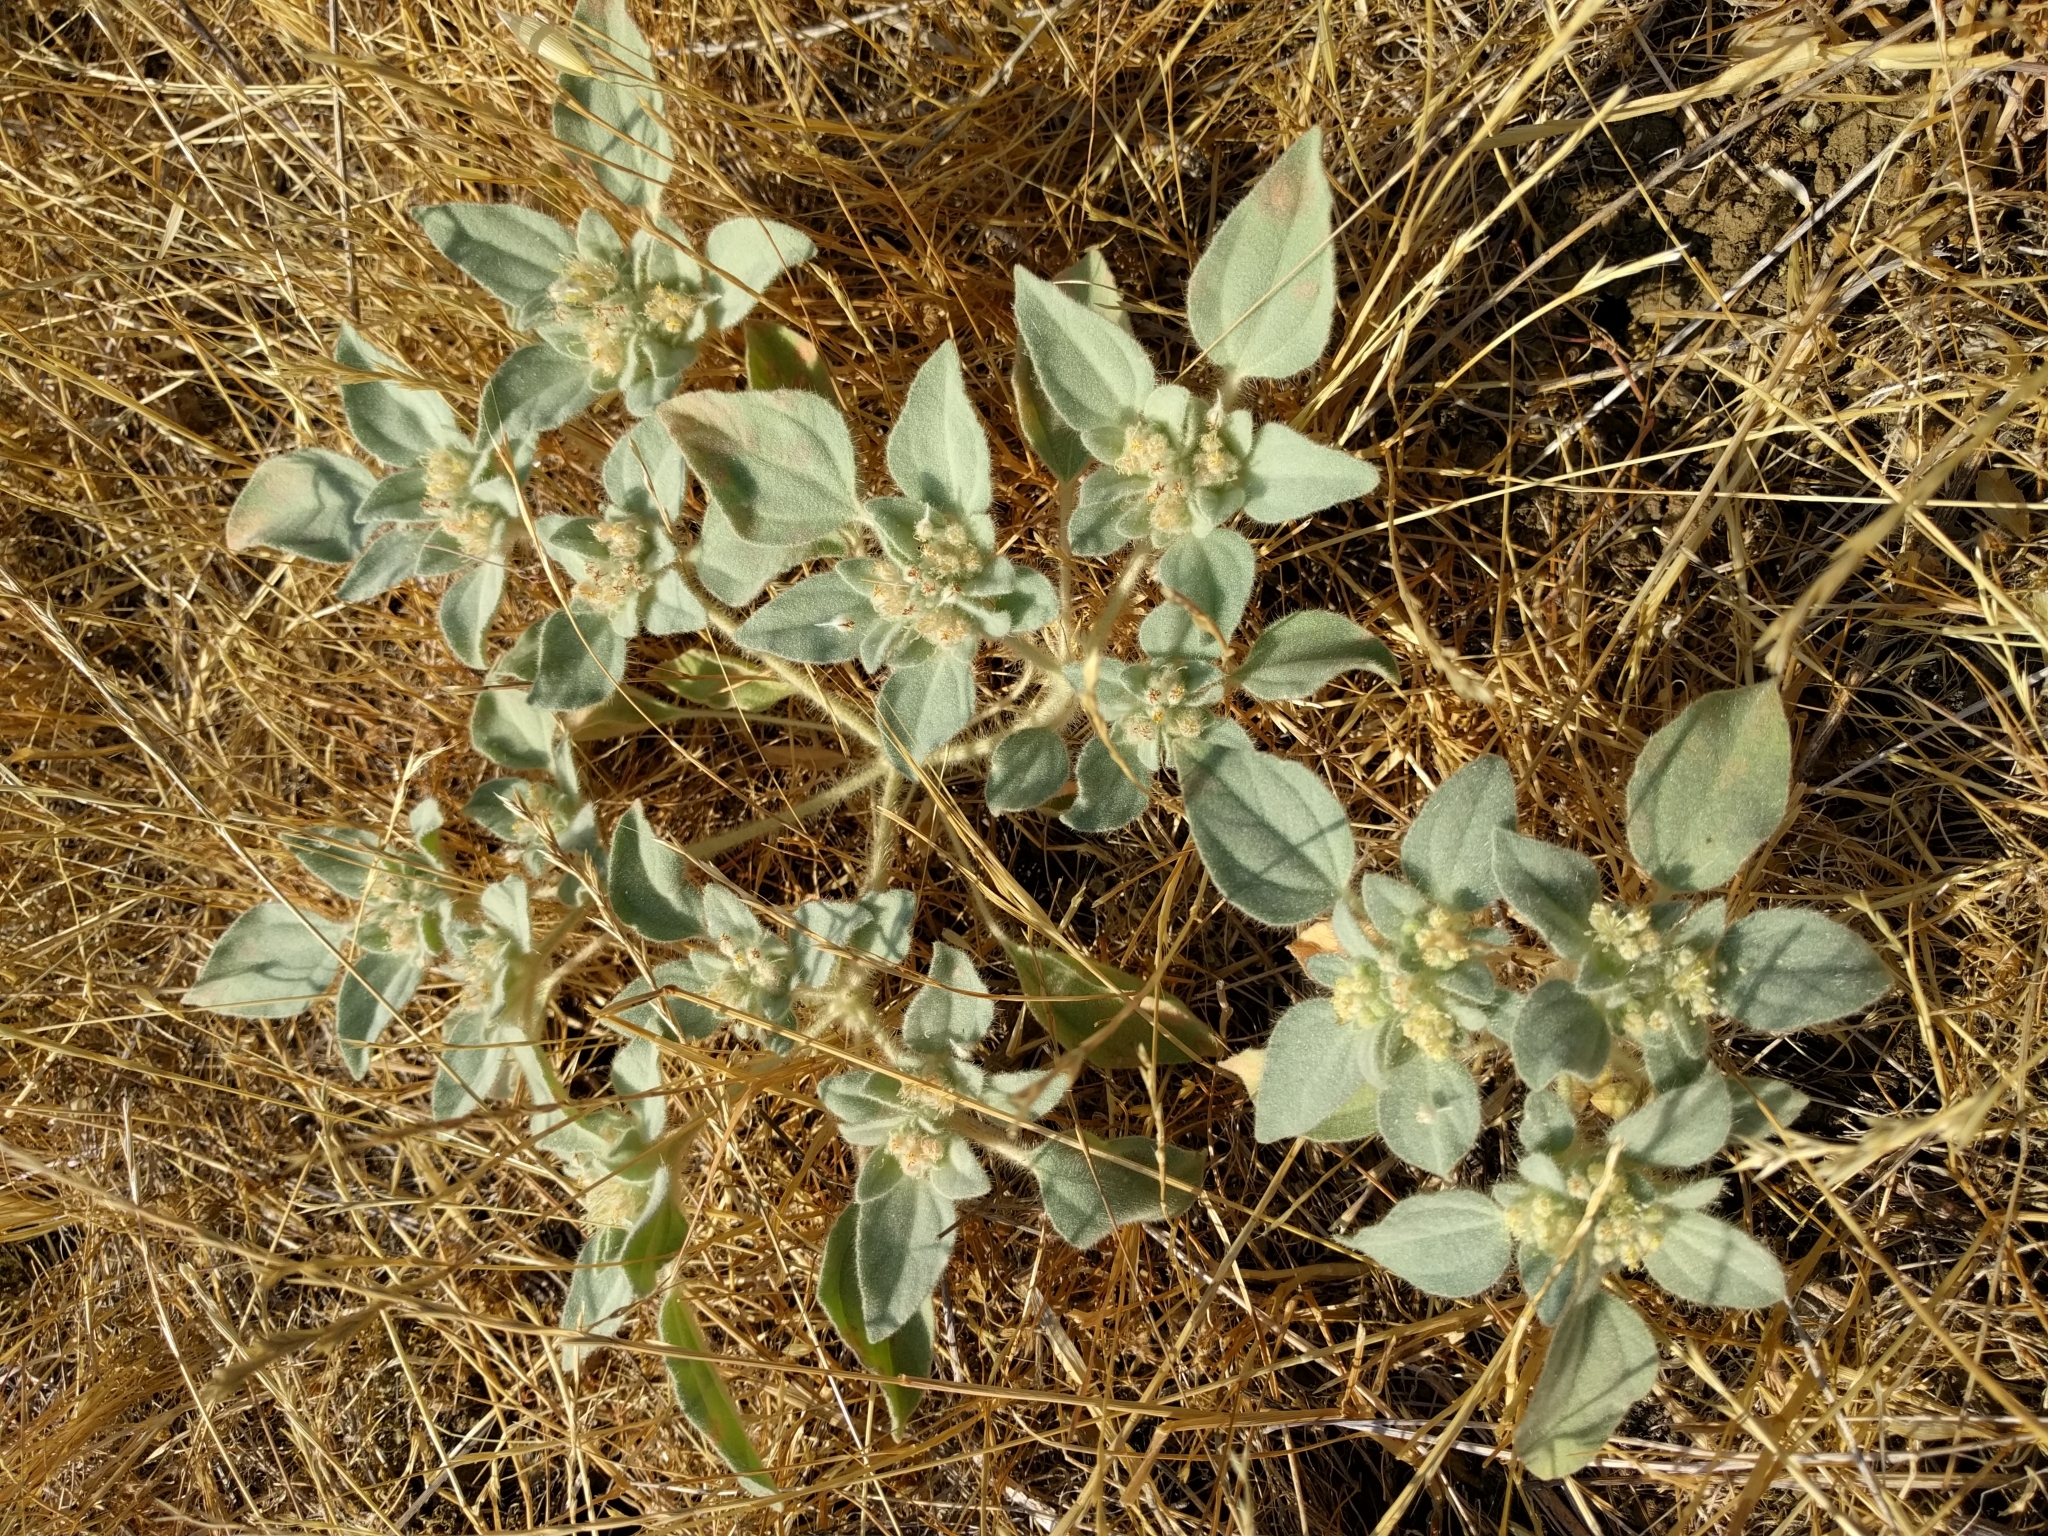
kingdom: Plantae
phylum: Tracheophyta
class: Magnoliopsida
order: Malpighiales
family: Euphorbiaceae
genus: Croton
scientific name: Croton setiger
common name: Dove weed
